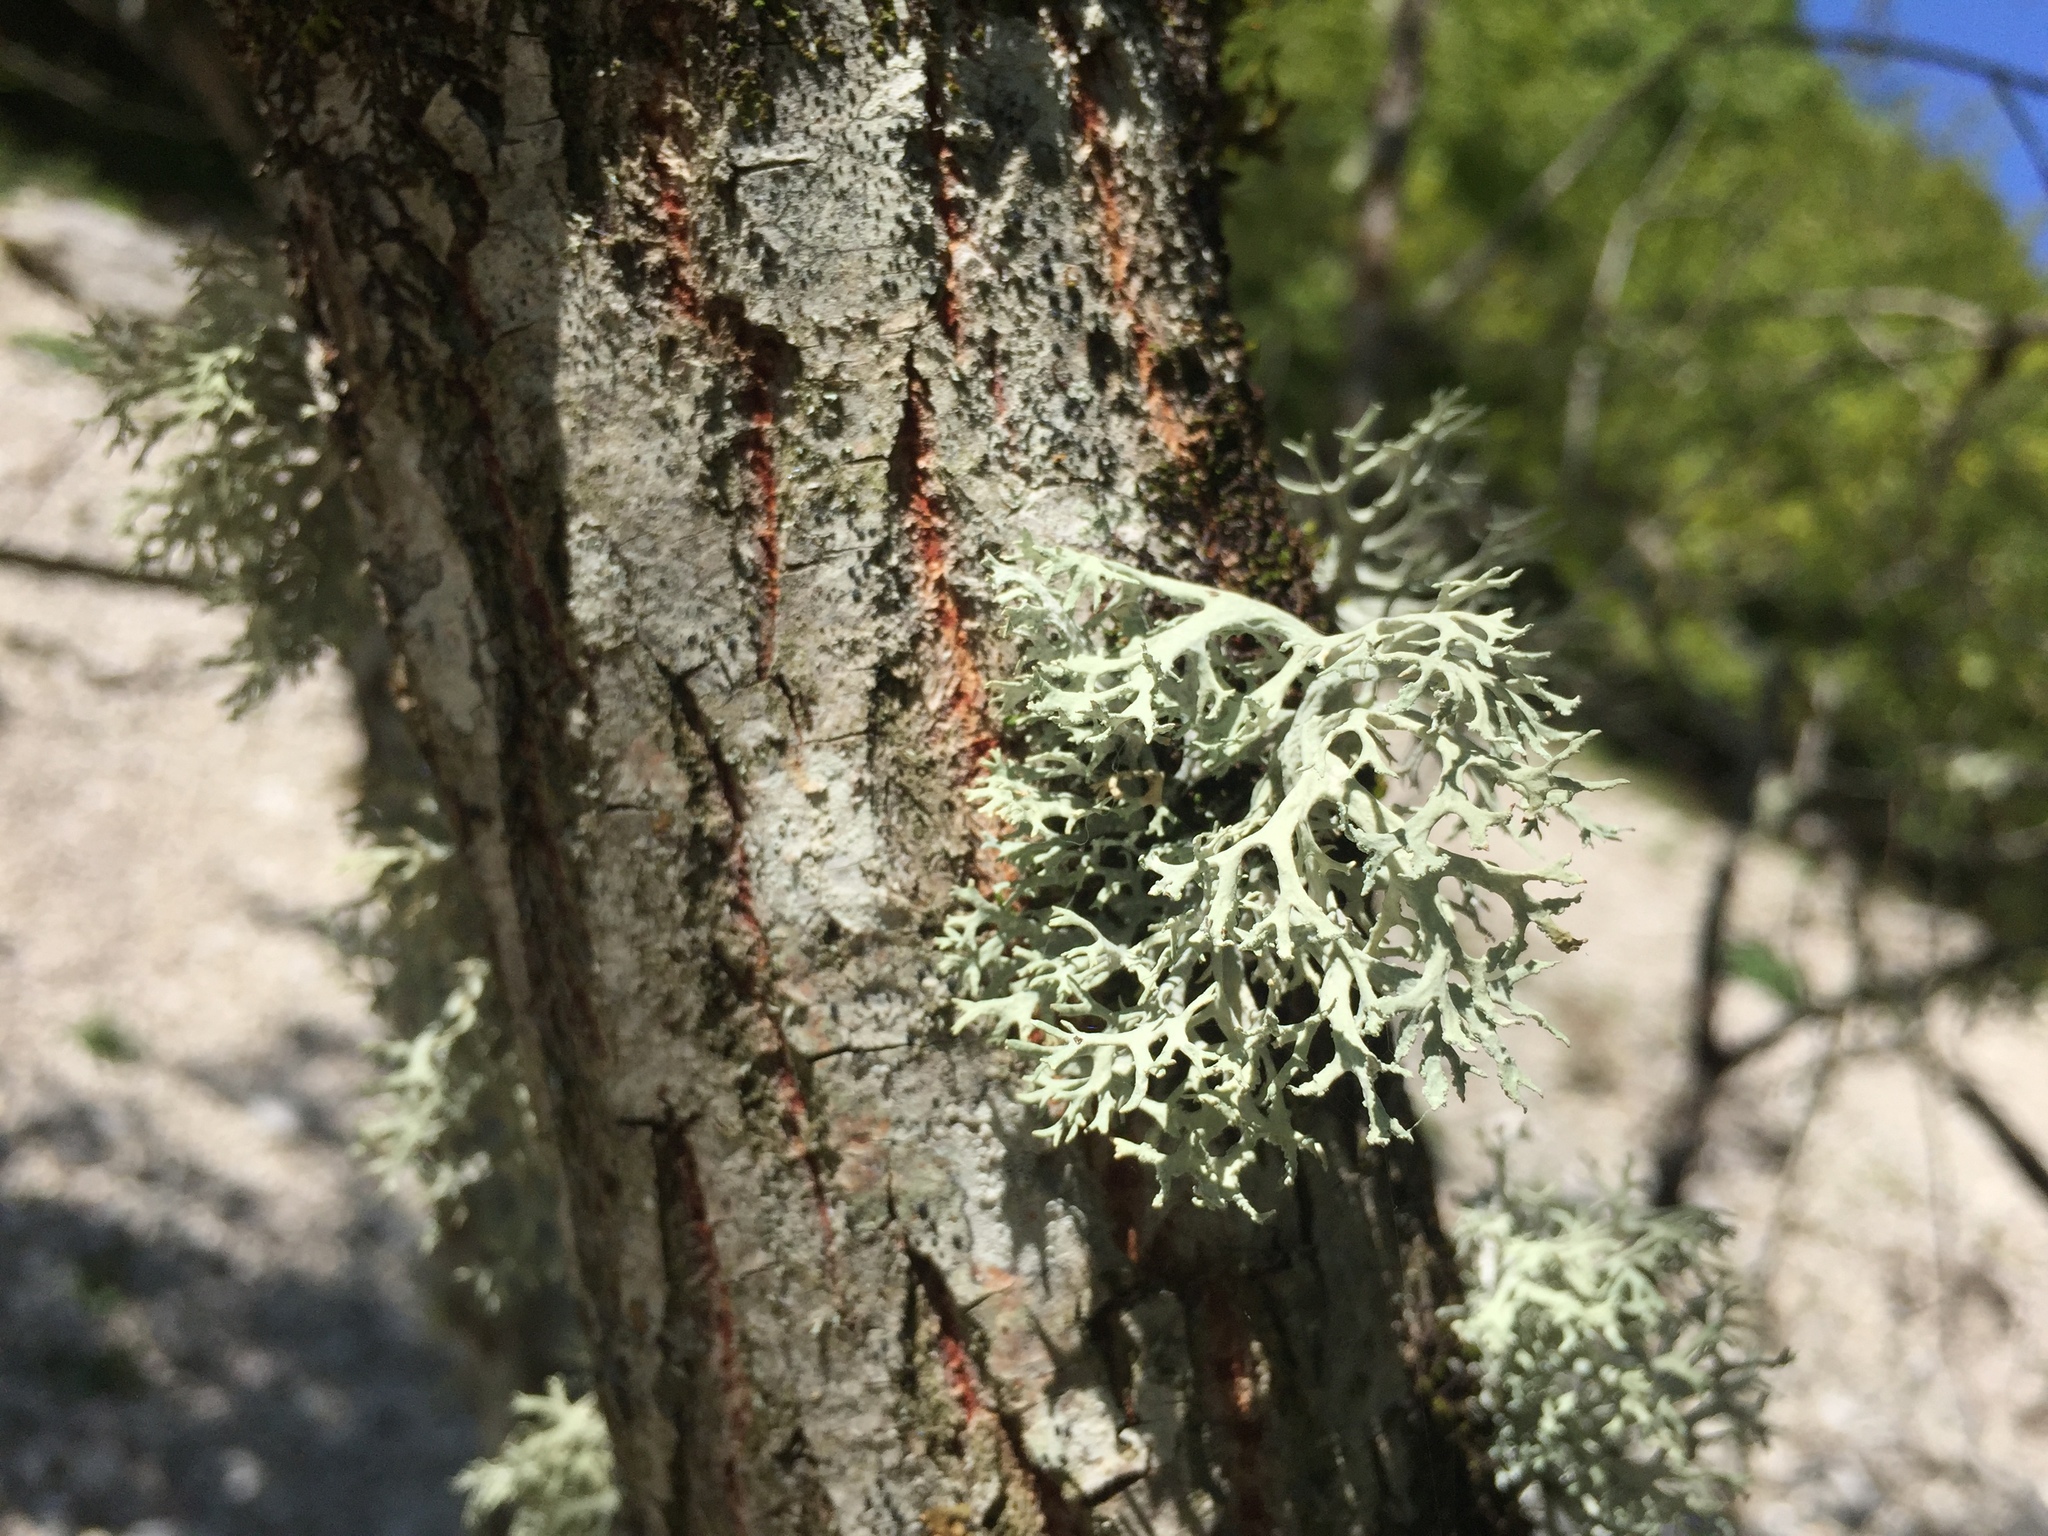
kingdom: Fungi
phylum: Ascomycota
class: Lecanoromycetes
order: Lecanorales
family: Parmeliaceae
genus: Evernia
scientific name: Evernia prunastri
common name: Oak moss
